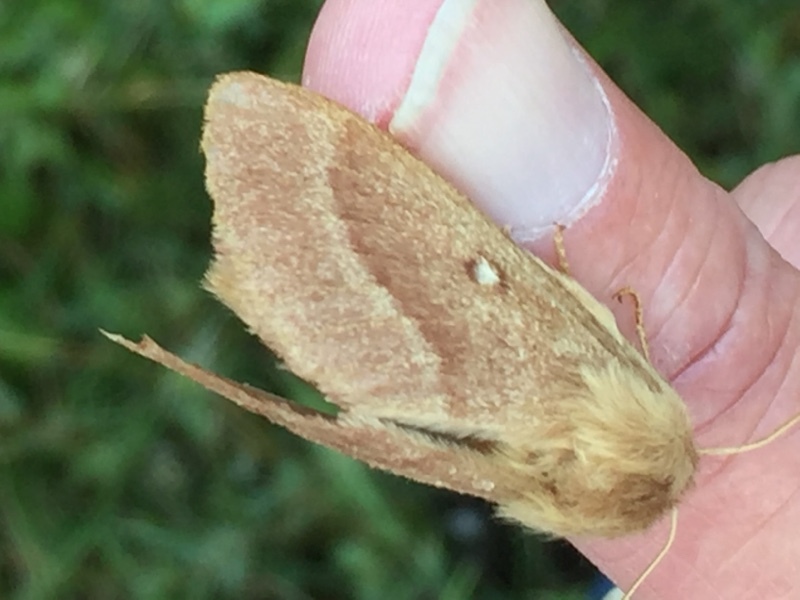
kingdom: Animalia
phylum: Arthropoda
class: Insecta
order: Lepidoptera
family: Lasiocampidae
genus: Lasiocampa
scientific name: Lasiocampa trifolii
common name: Grass eggar
